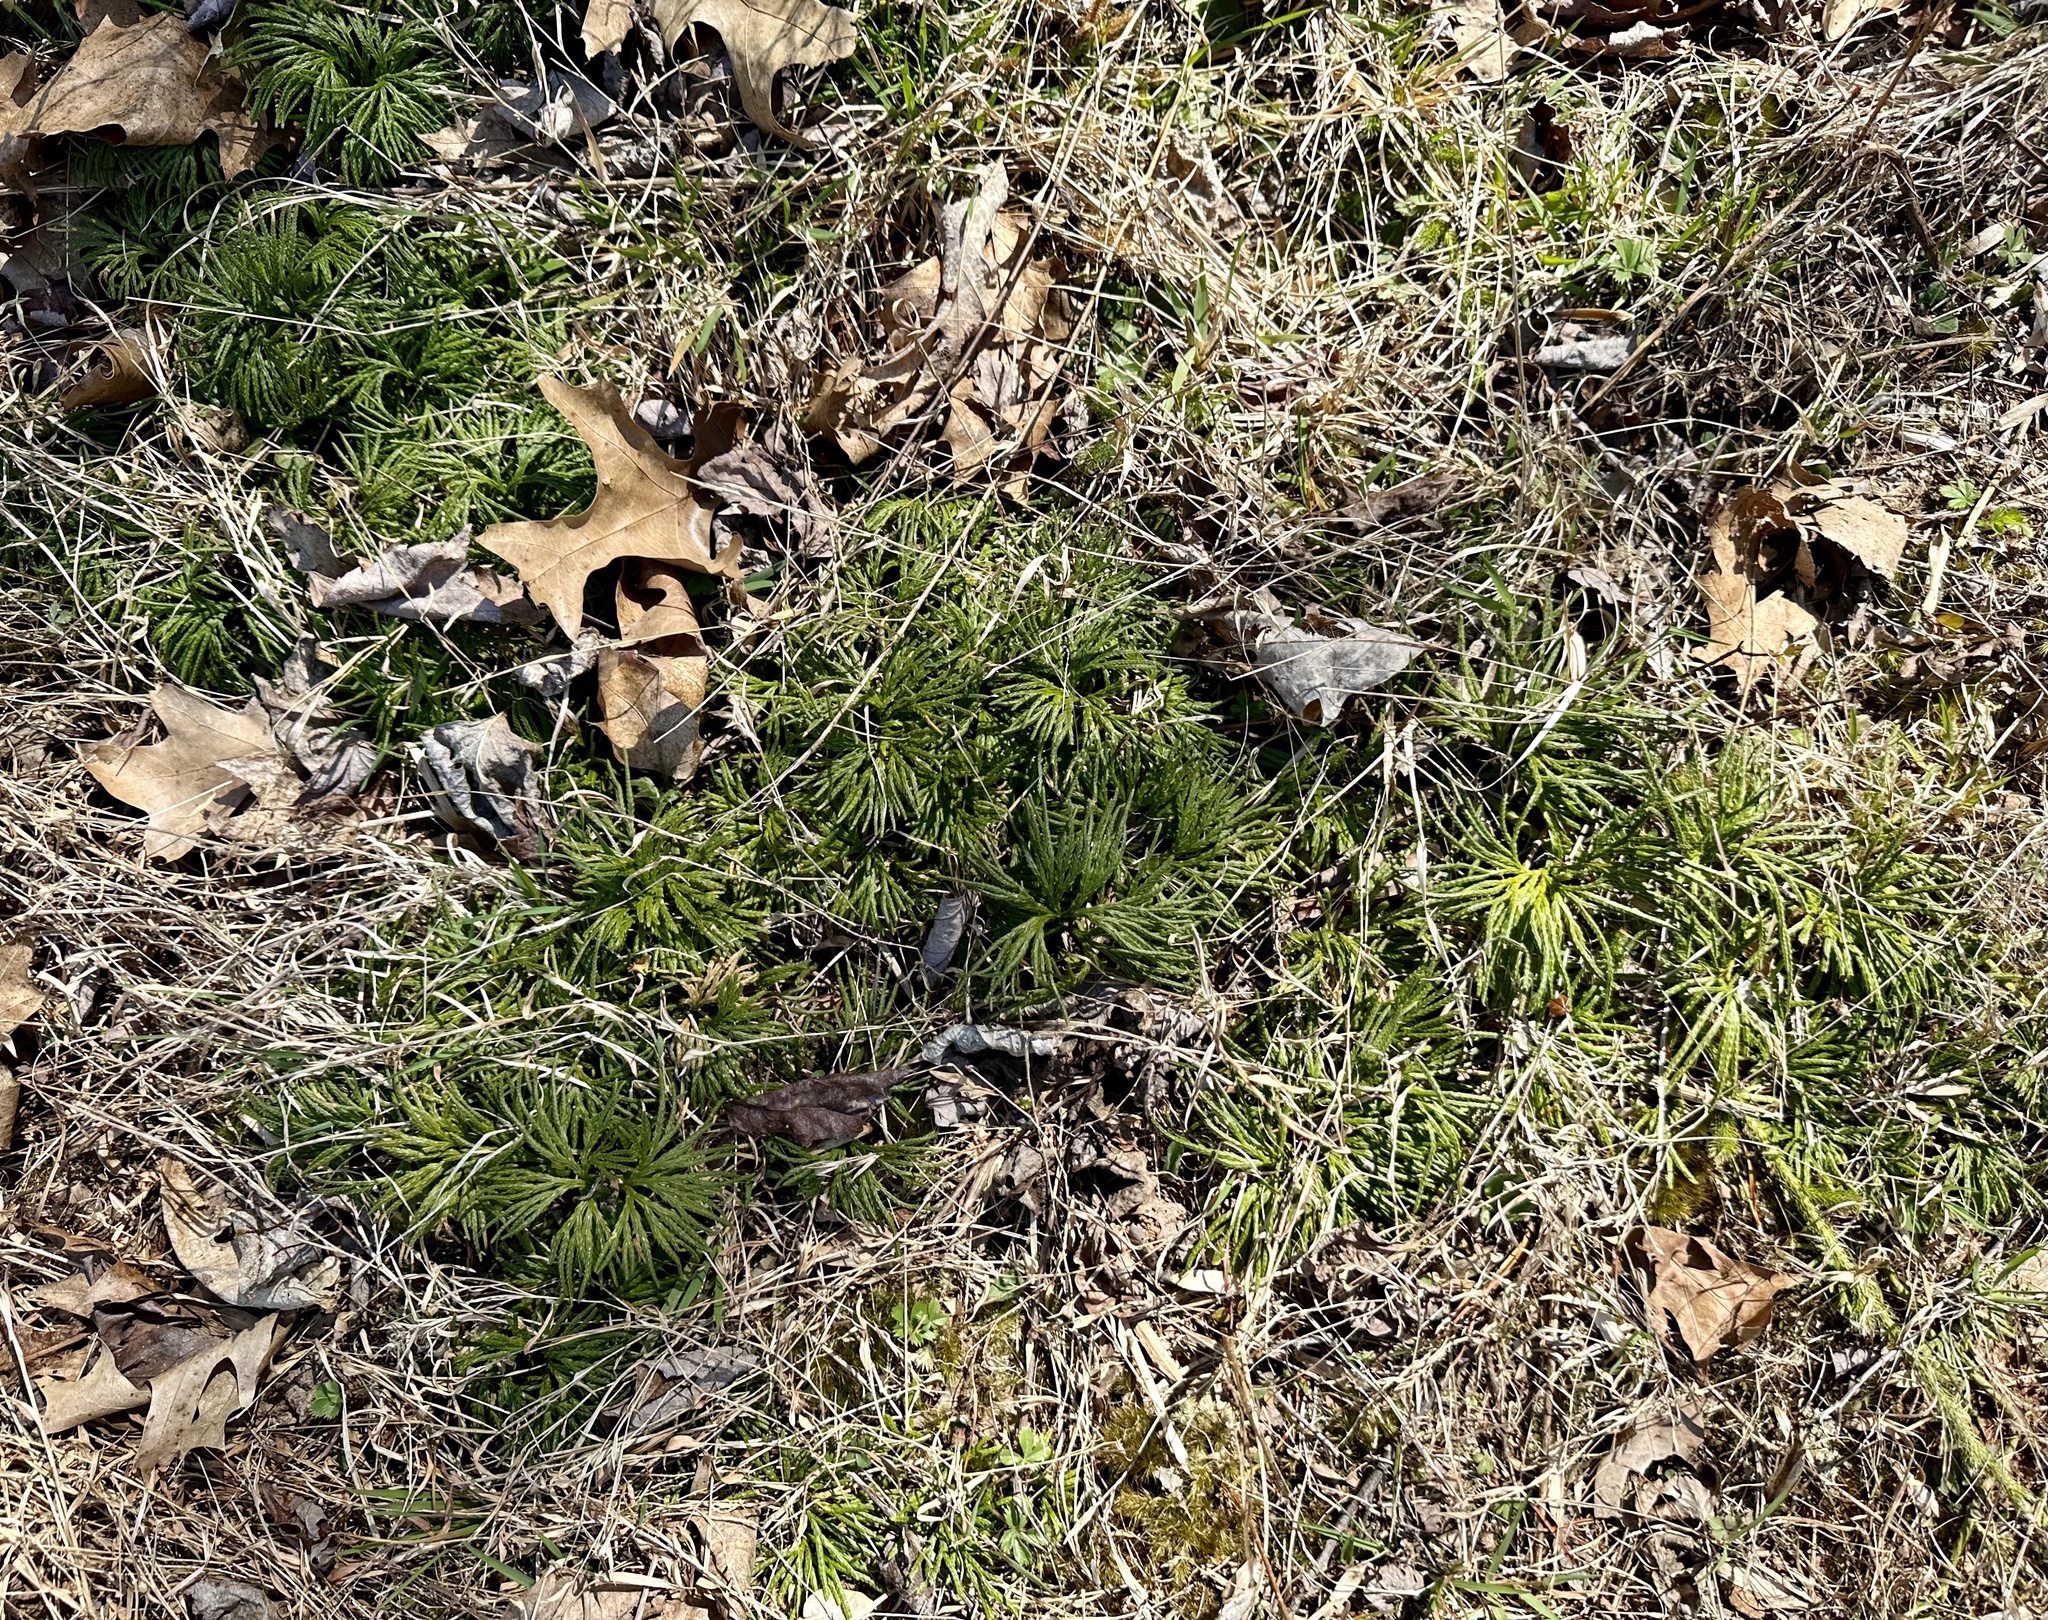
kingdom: Plantae
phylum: Tracheophyta
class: Lycopodiopsida
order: Lycopodiales
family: Lycopodiaceae
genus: Diphasiastrum
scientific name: Diphasiastrum digitatum
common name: Southern running-pine
